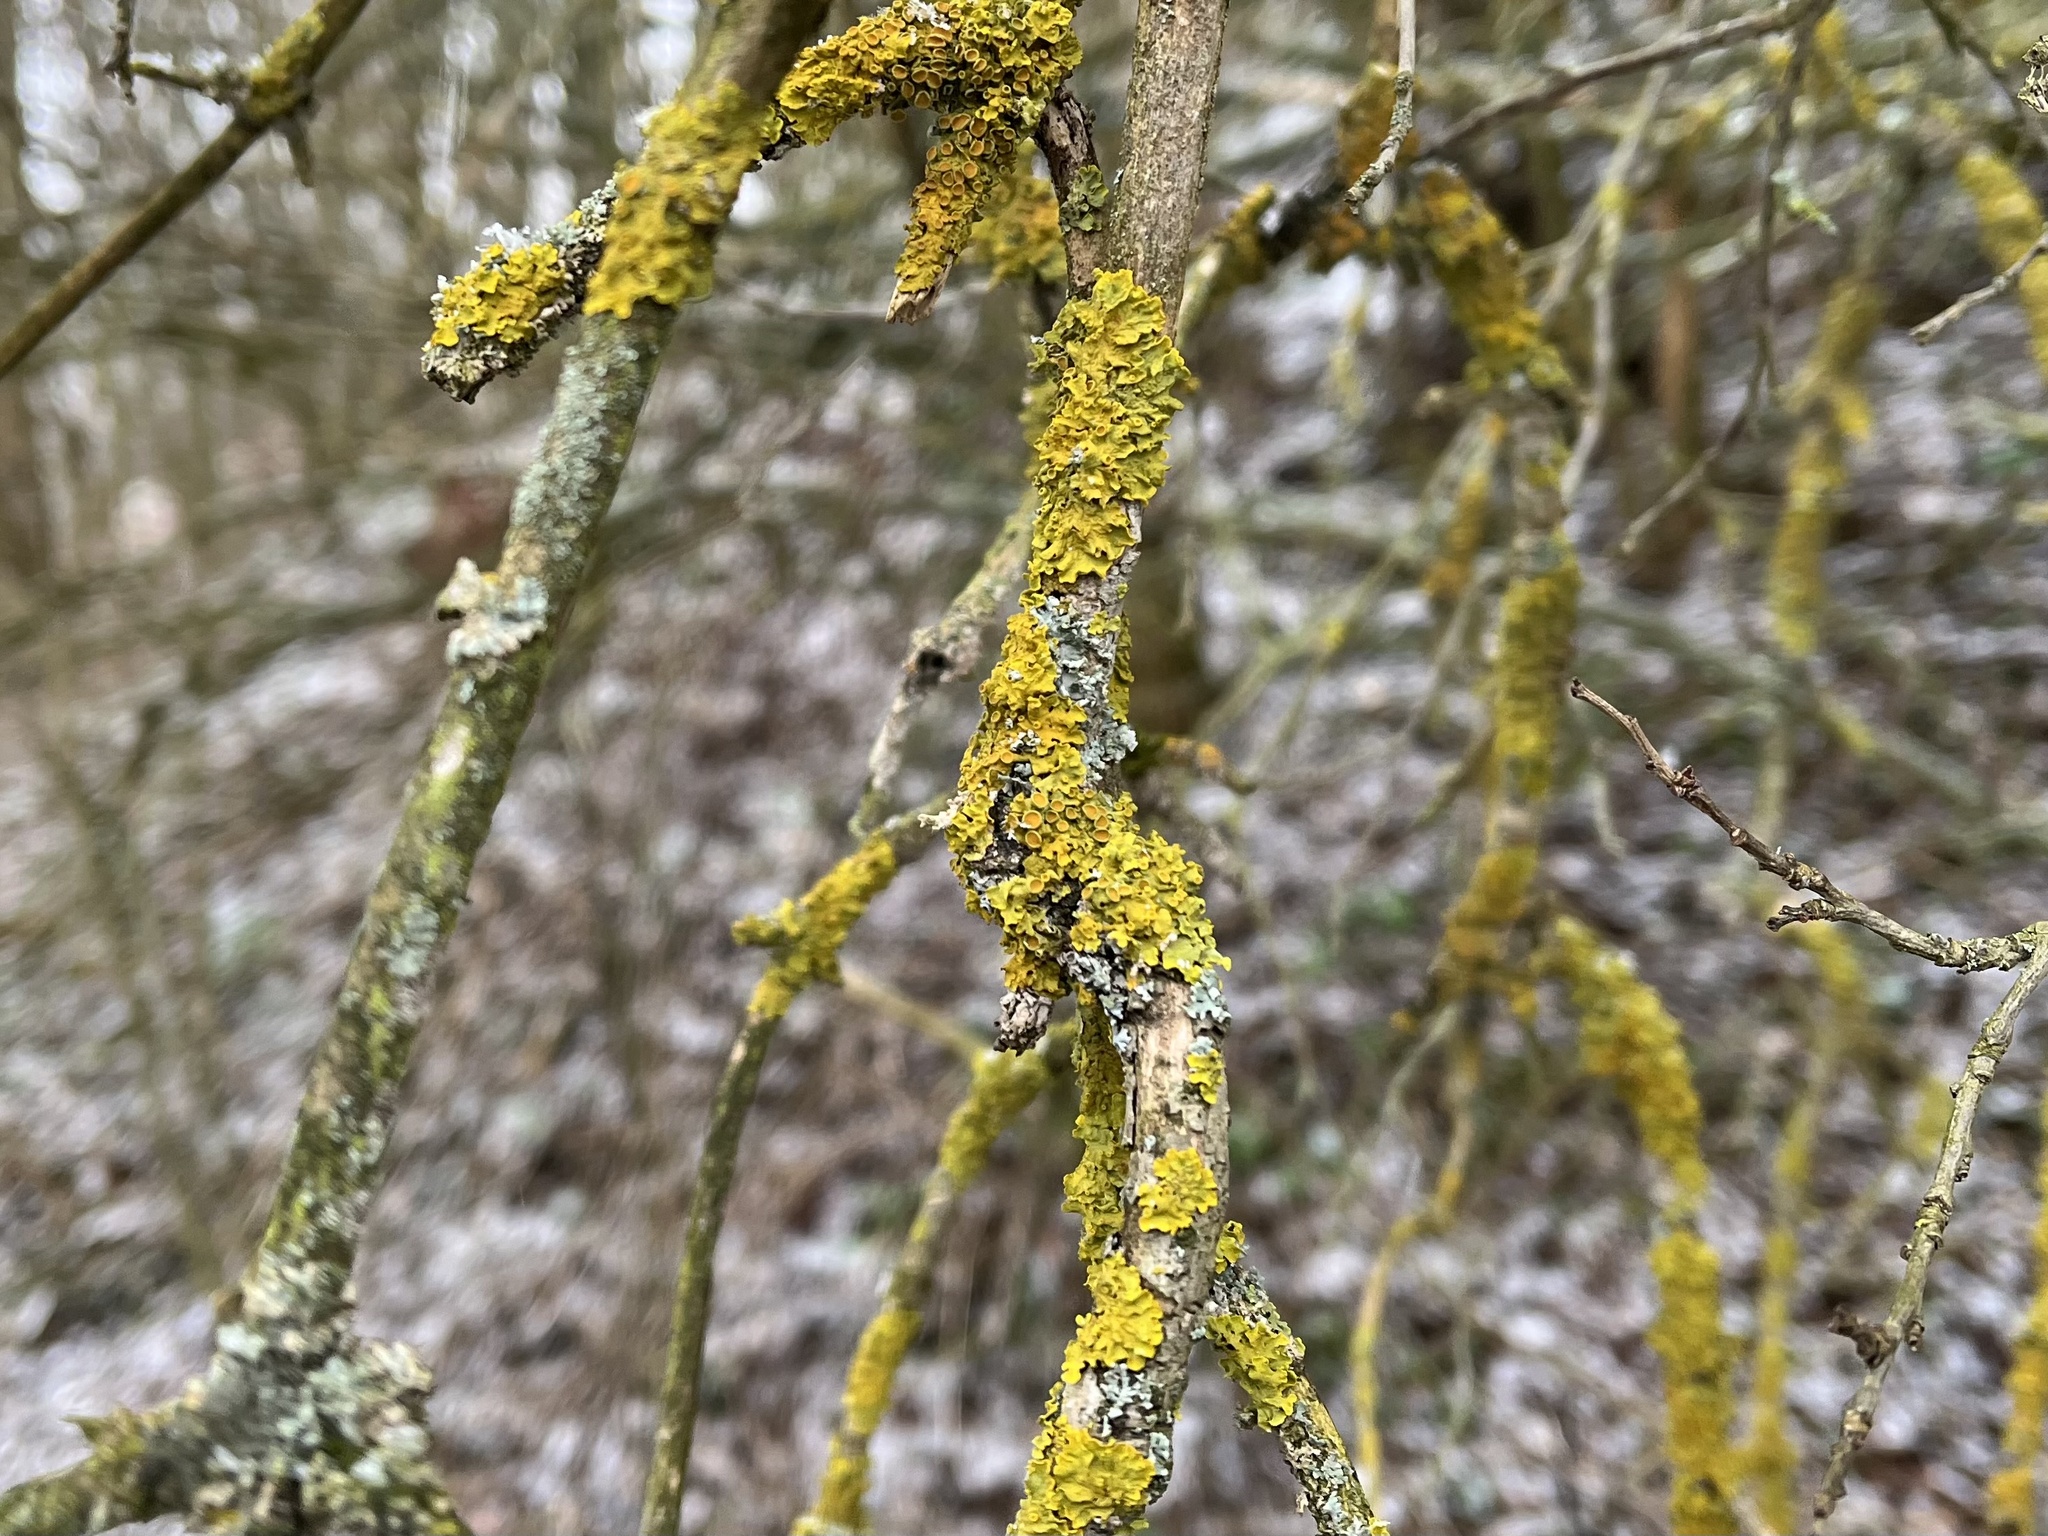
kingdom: Fungi
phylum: Ascomycota
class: Lecanoromycetes
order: Teloschistales
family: Teloschistaceae
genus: Xanthoria
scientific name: Xanthoria parietina
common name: Common orange lichen
